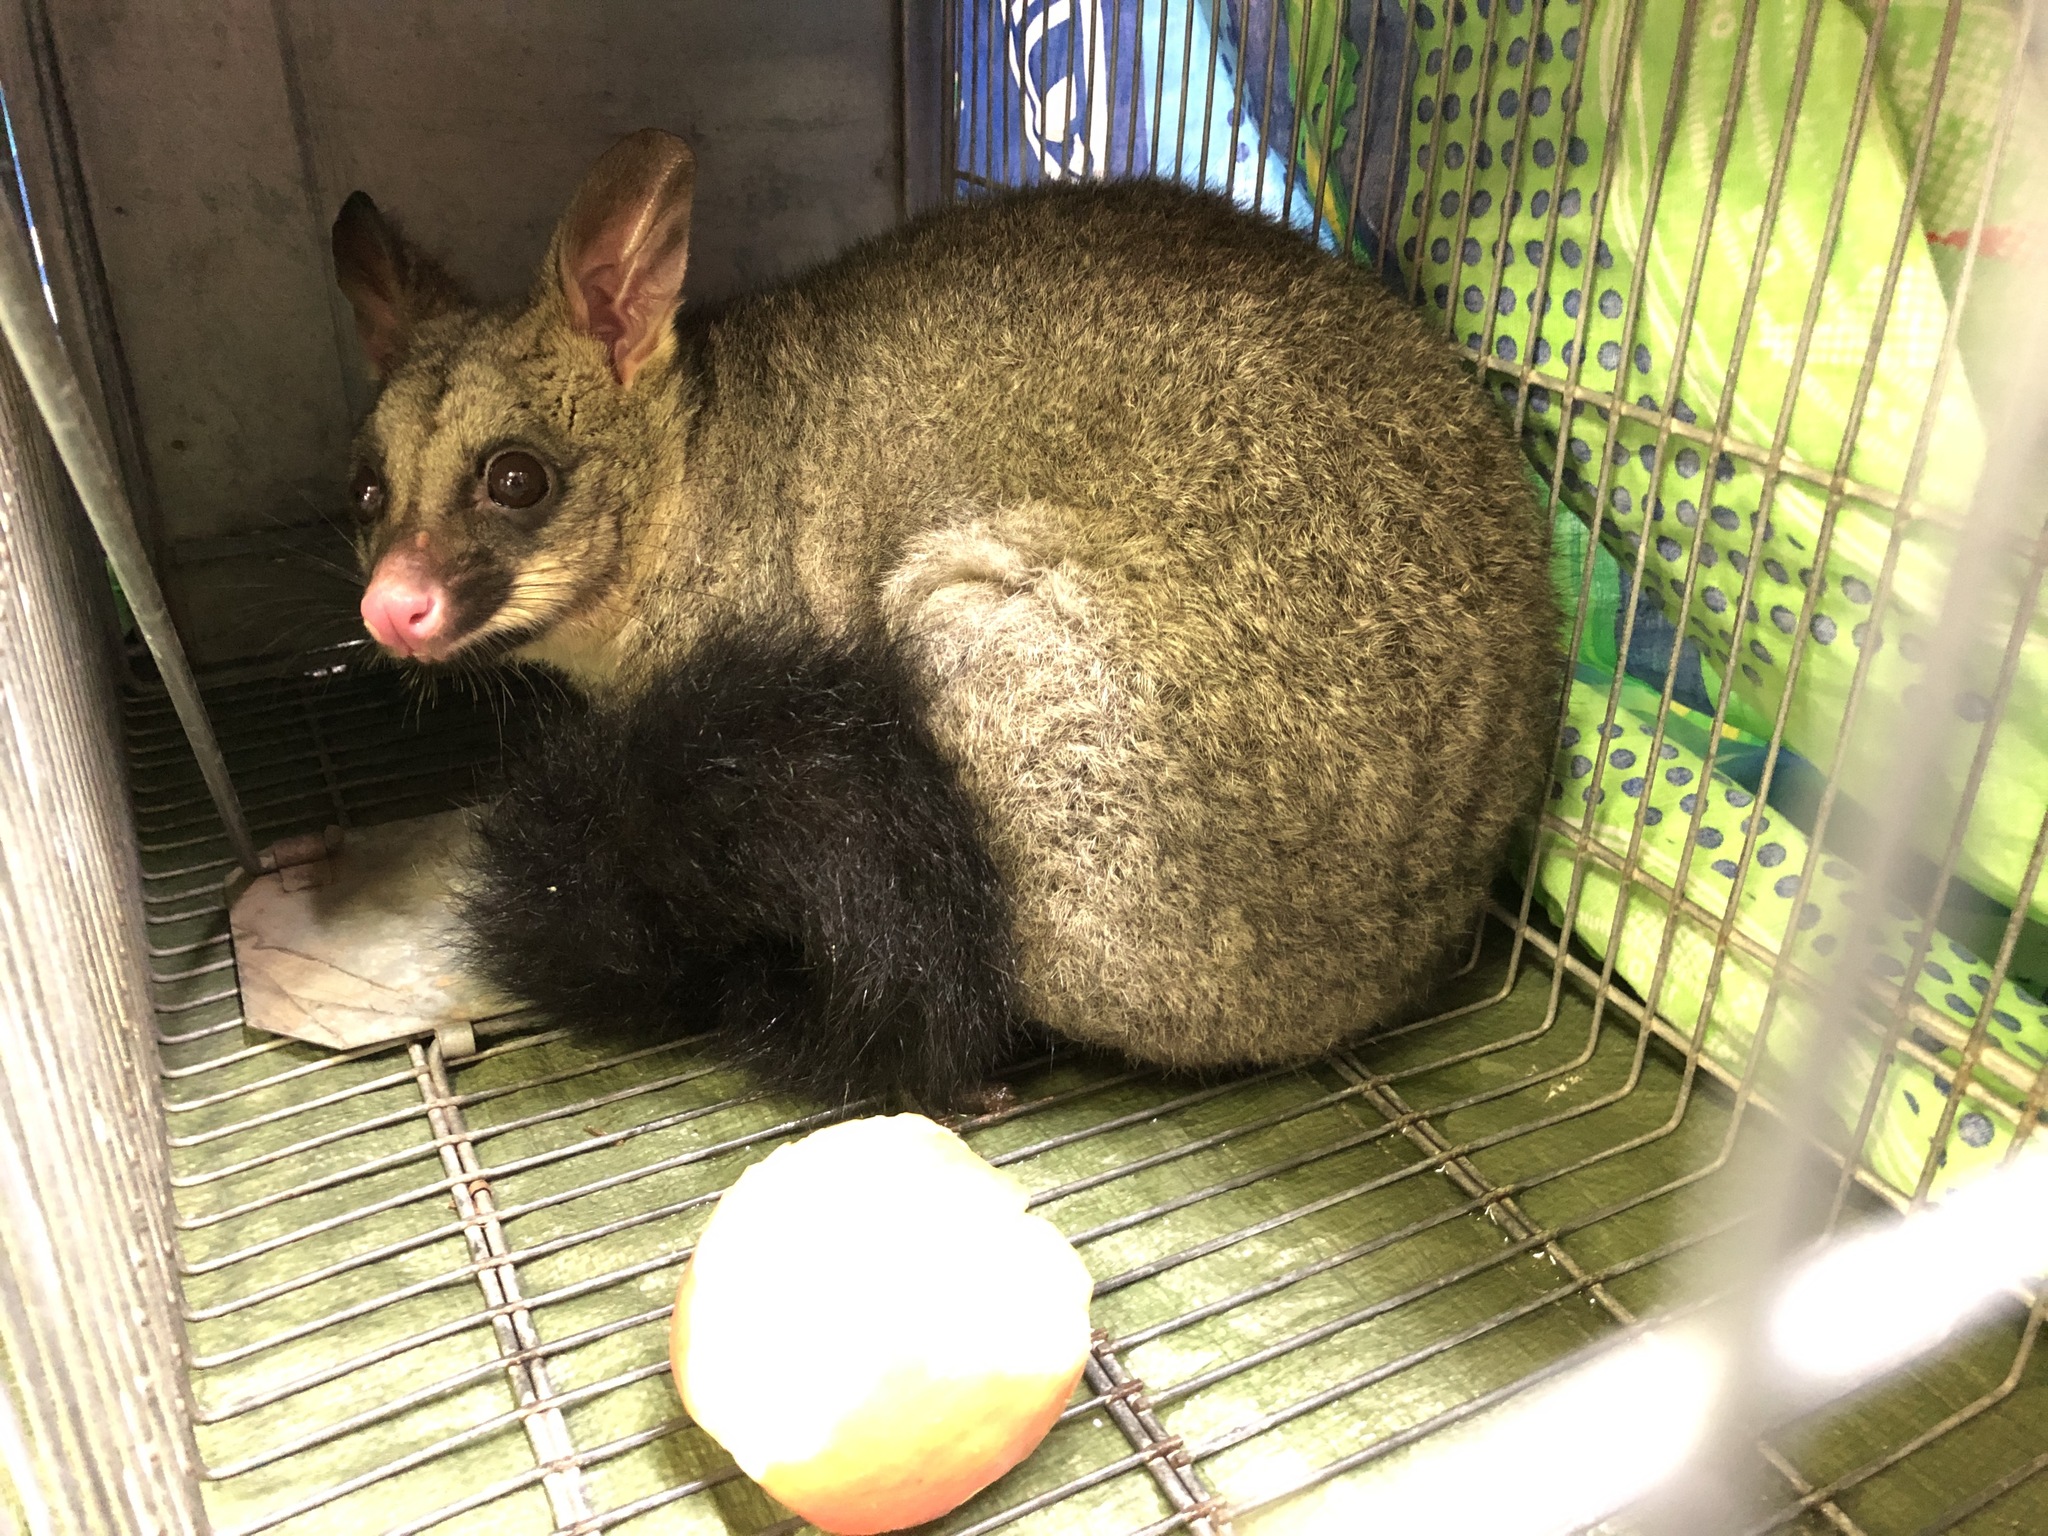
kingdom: Animalia
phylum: Chordata
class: Mammalia
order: Diprotodontia
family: Phalangeridae
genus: Trichosurus
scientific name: Trichosurus vulpecula
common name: Common brushtail
